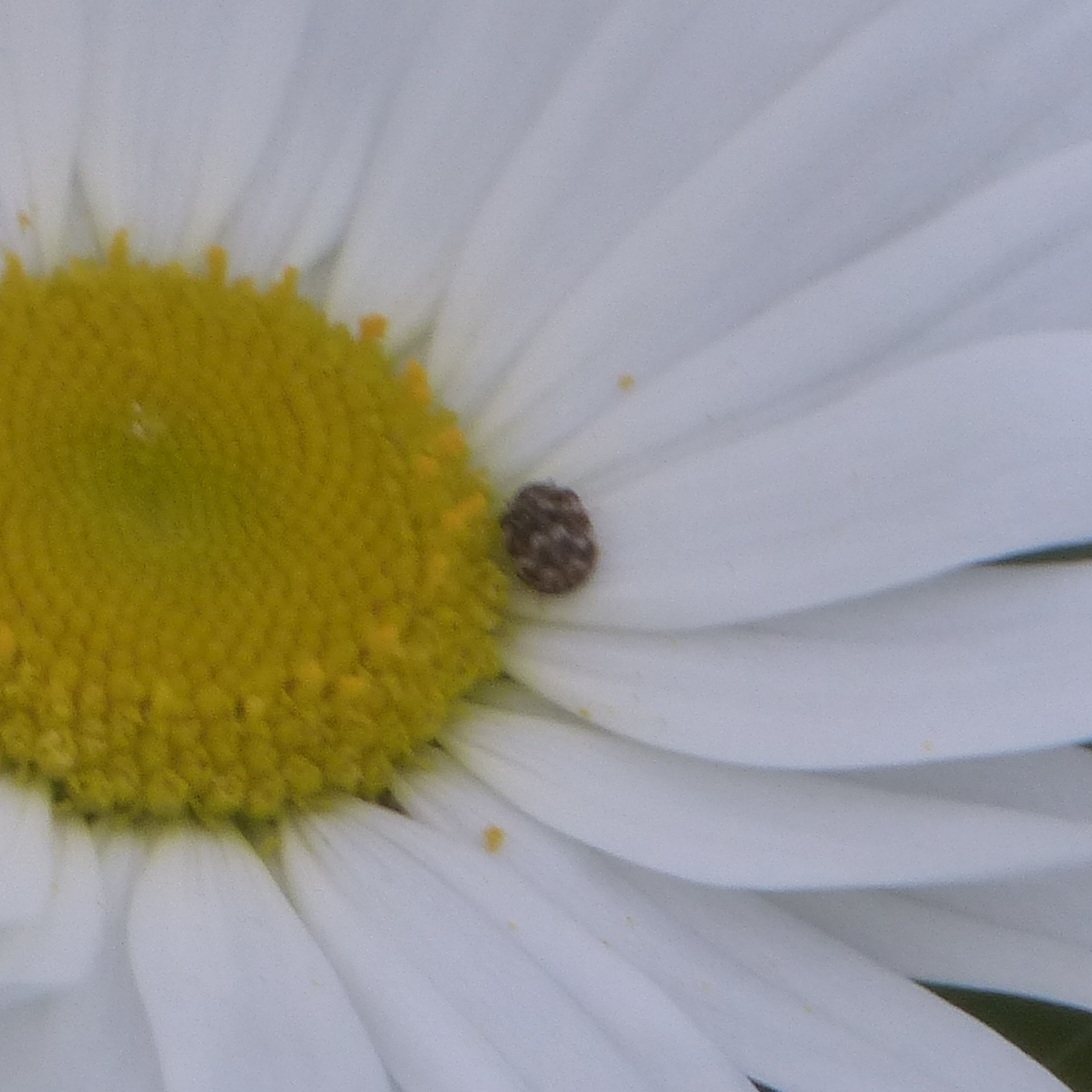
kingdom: Animalia
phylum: Arthropoda
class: Insecta
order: Coleoptera
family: Dermestidae
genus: Anthrenus
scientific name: Anthrenus verbasci
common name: Varied carpet beetle
